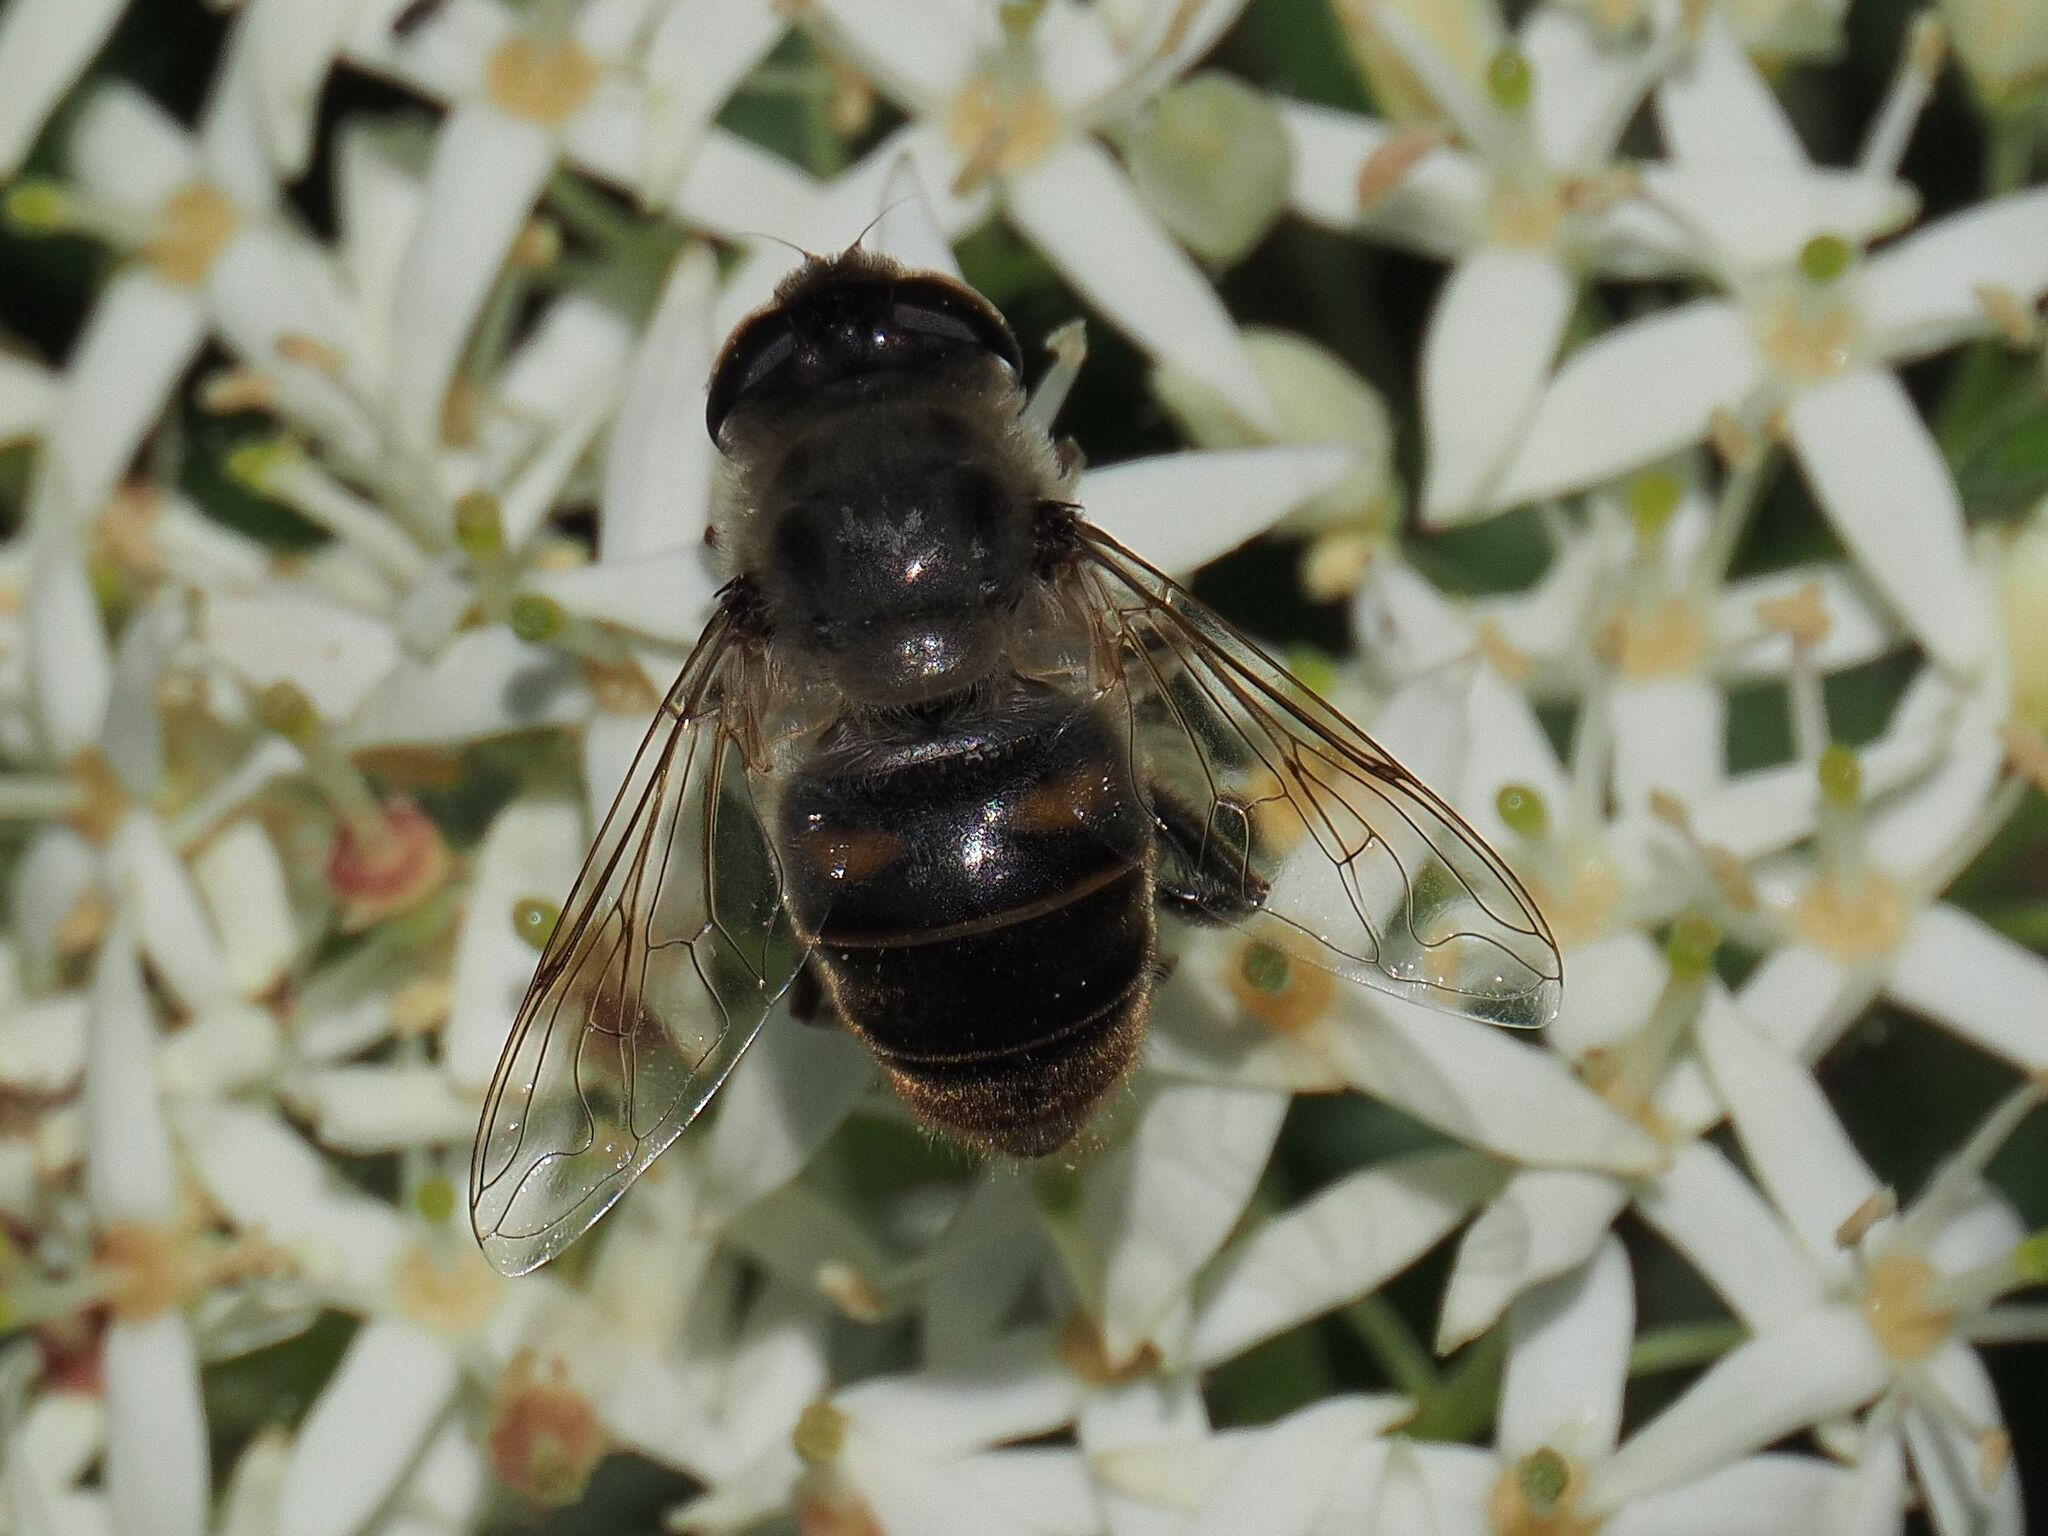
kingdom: Animalia
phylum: Arthropoda
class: Insecta
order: Diptera
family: Syrphidae
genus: Eristalis
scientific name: Eristalis tenax
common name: Drone fly
